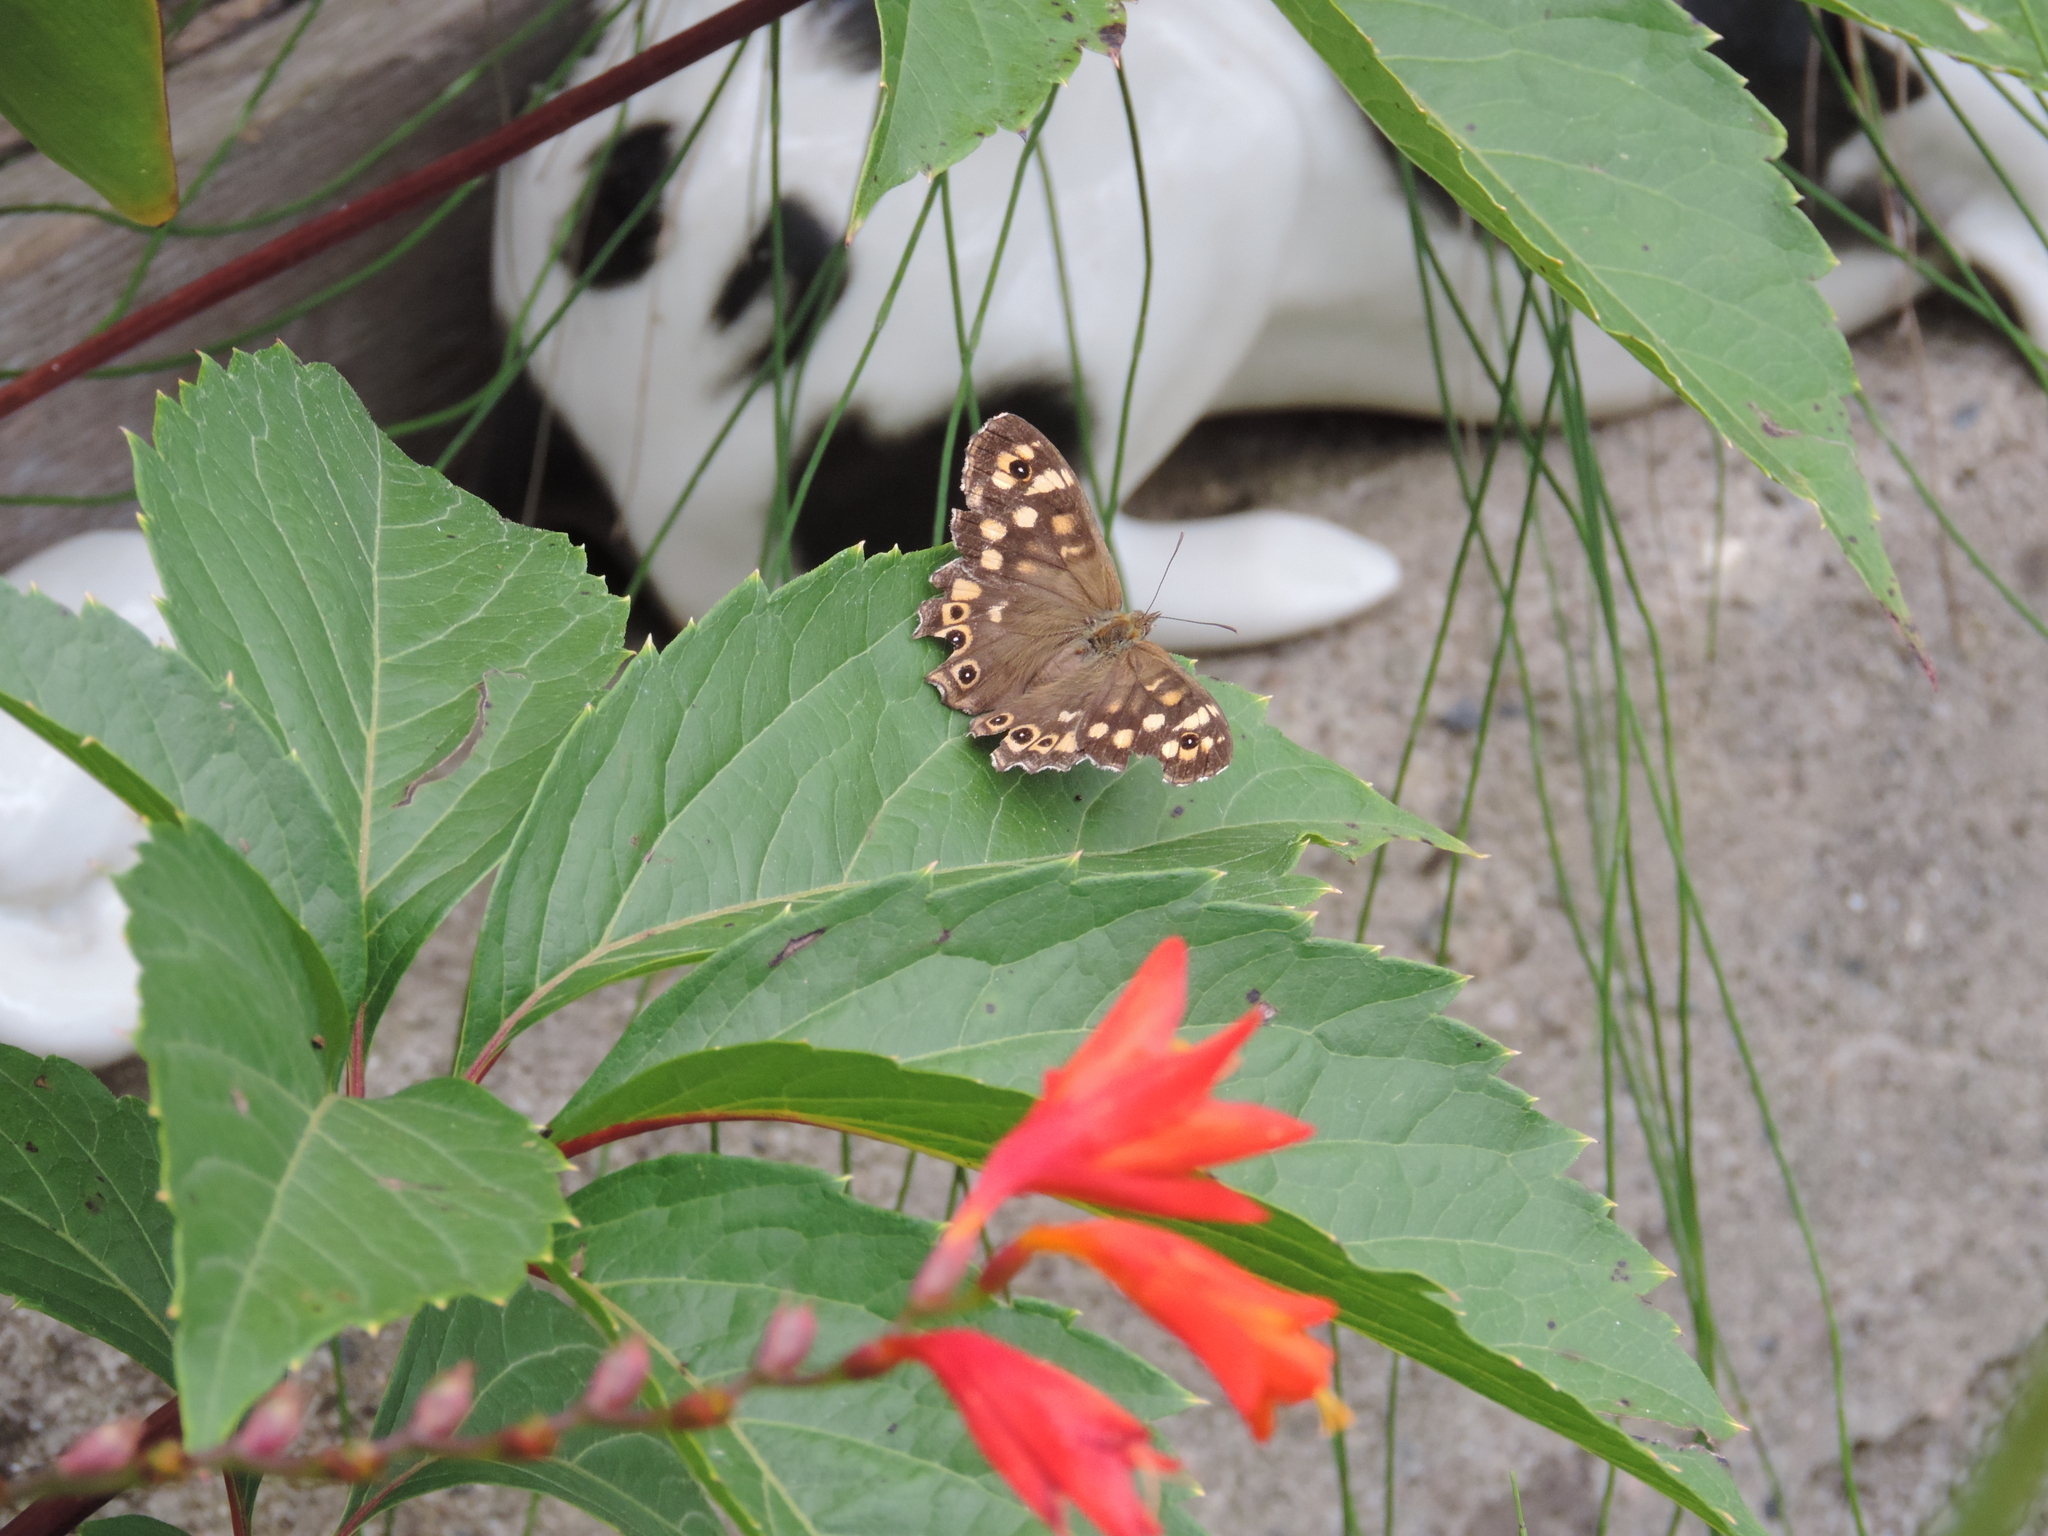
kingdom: Animalia
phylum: Arthropoda
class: Insecta
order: Lepidoptera
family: Nymphalidae
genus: Pararge
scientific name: Pararge aegeria
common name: Speckled wood
